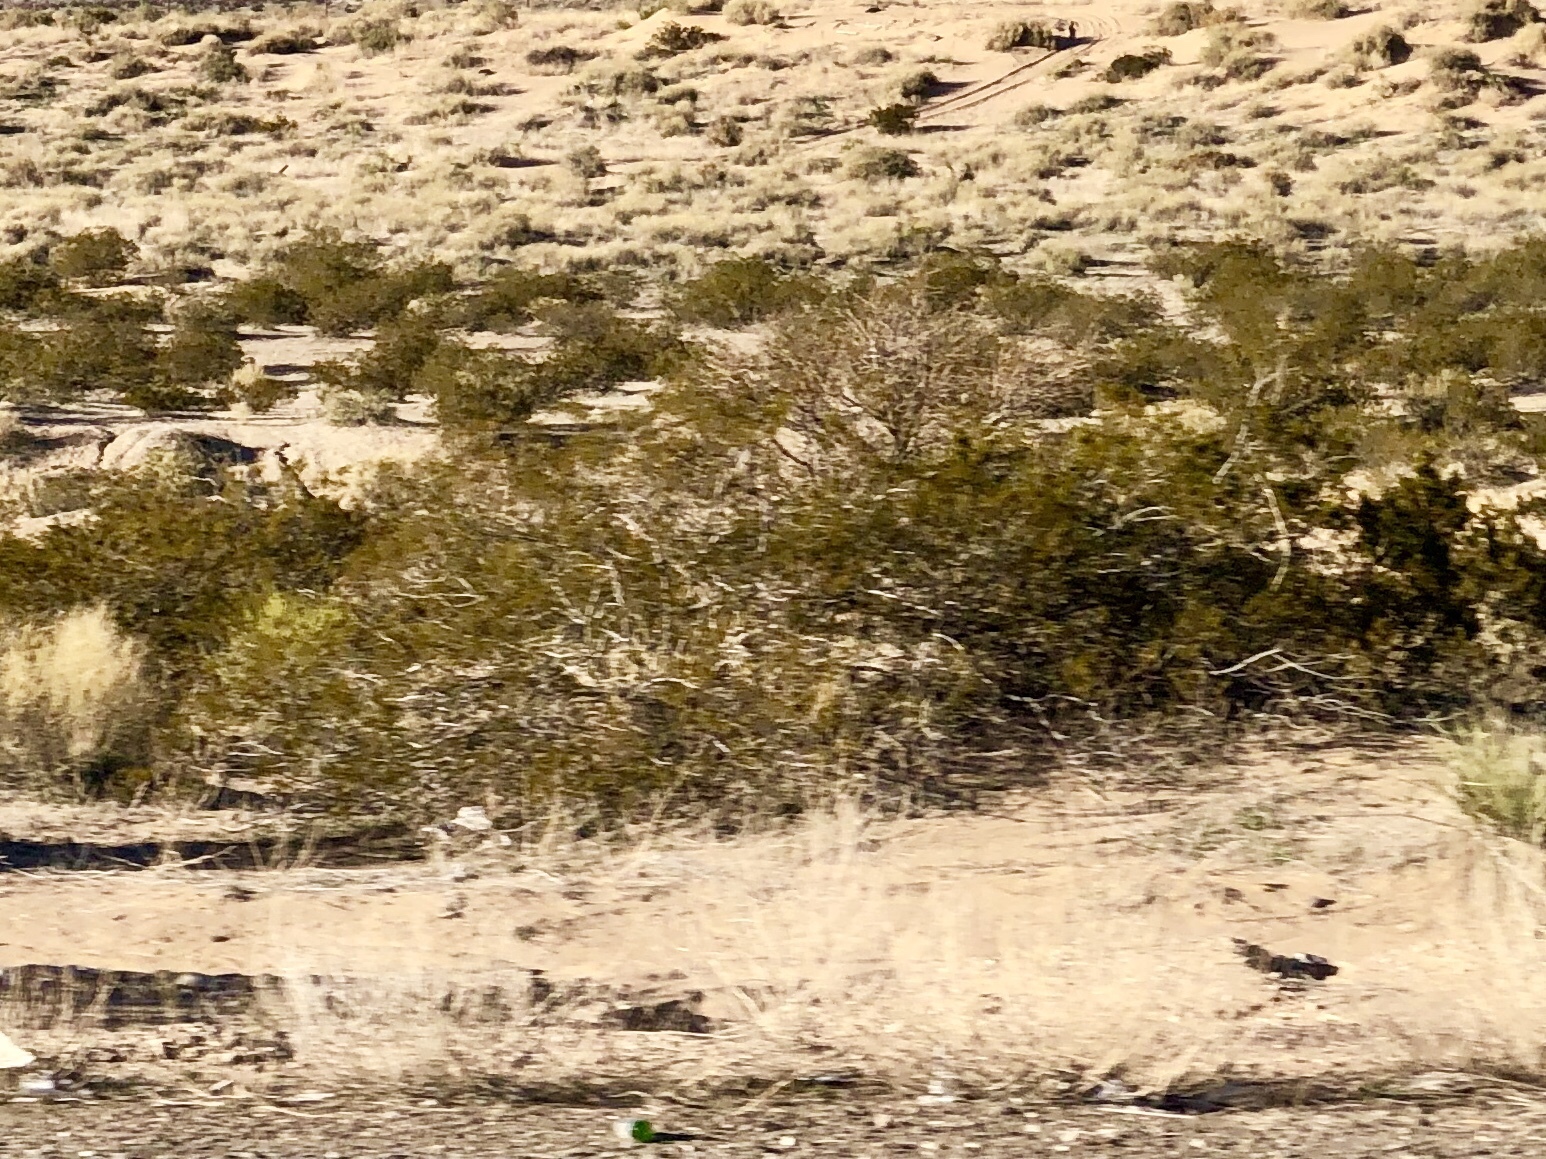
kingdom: Plantae
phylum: Tracheophyta
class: Magnoliopsida
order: Zygophyllales
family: Zygophyllaceae
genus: Larrea
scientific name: Larrea tridentata
